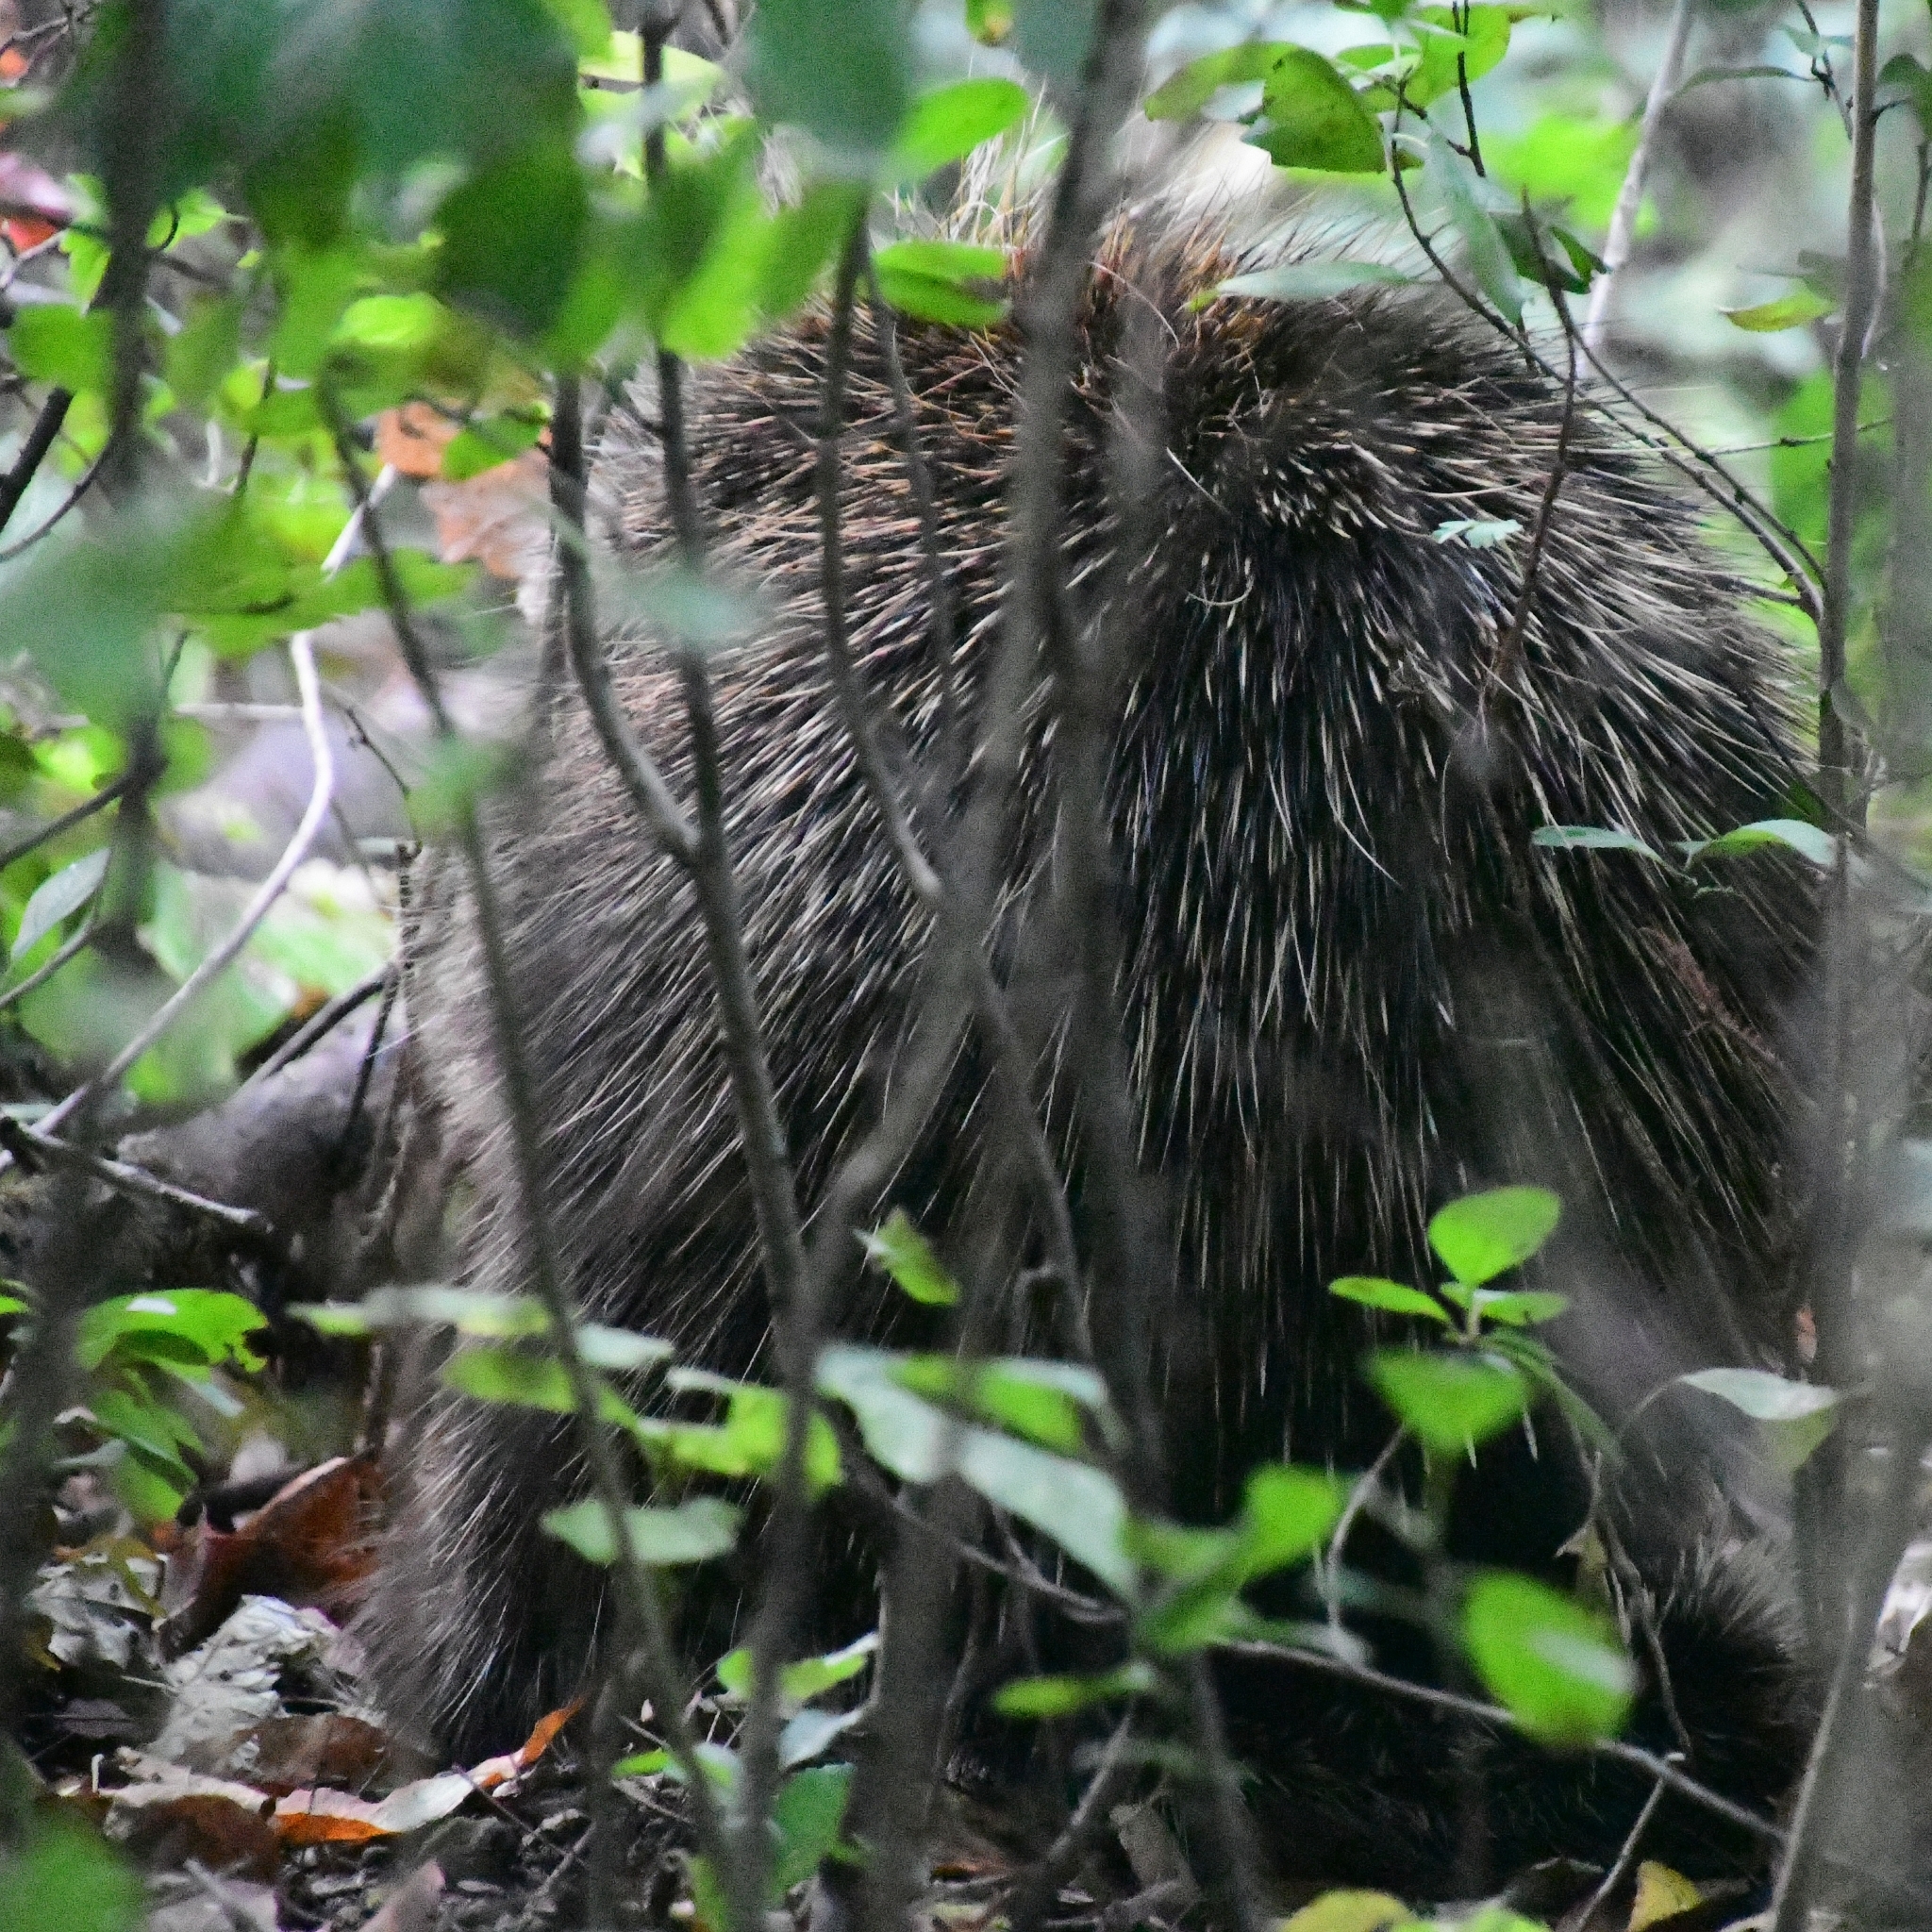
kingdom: Animalia
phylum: Chordata
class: Mammalia
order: Rodentia
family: Erethizontidae
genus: Erethizon
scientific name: Erethizon dorsatus
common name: North american porcupine
